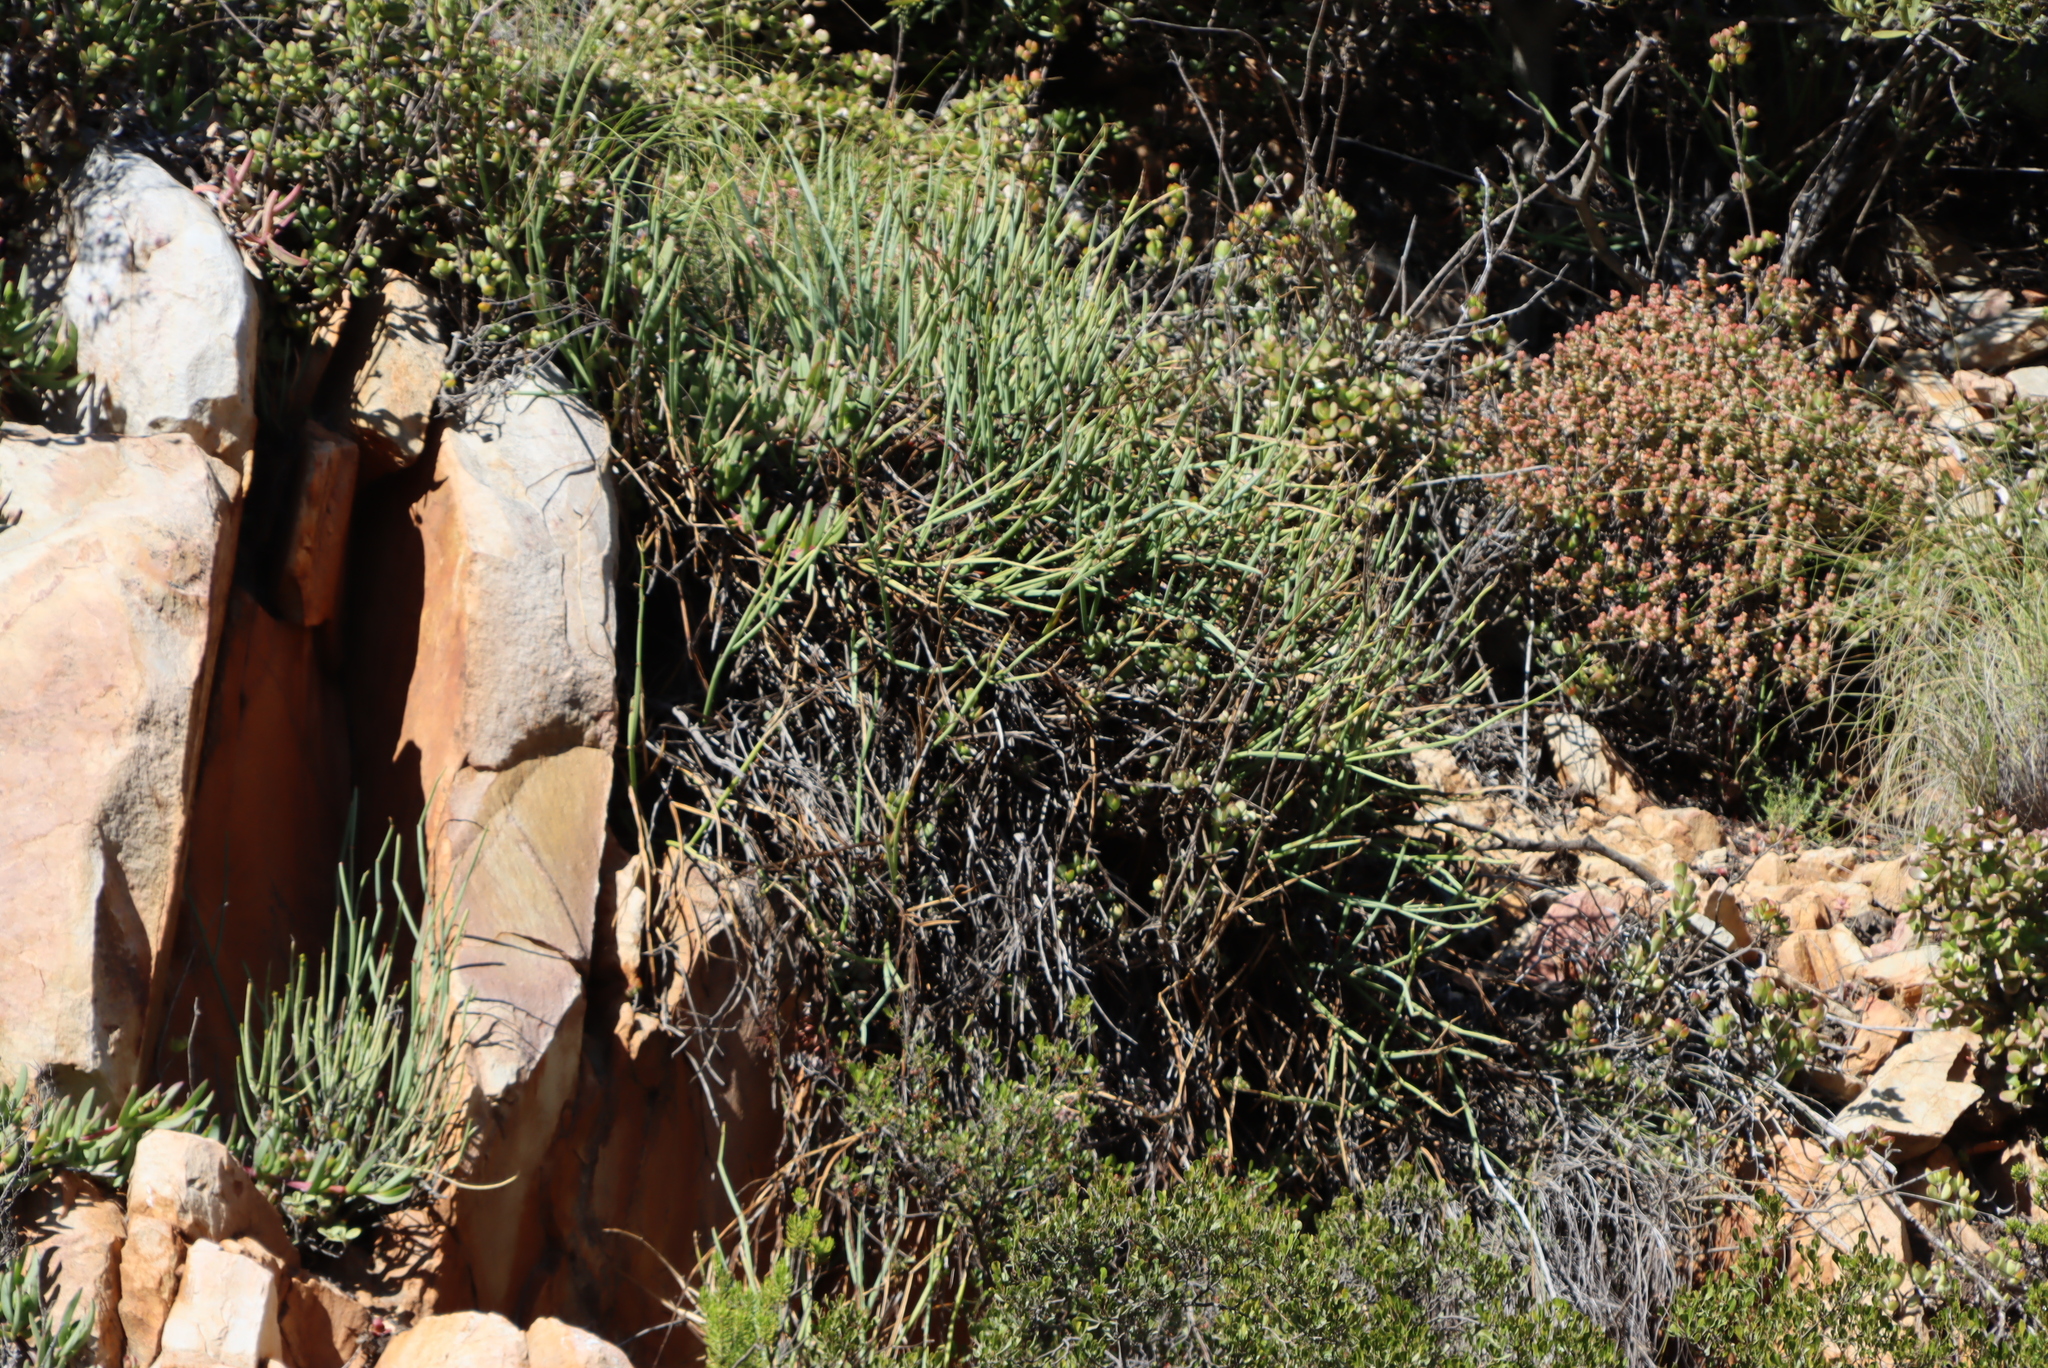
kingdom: Plantae
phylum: Tracheophyta
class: Magnoliopsida
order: Malpighiales
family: Euphorbiaceae
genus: Euphorbia
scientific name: Euphorbia mauritanica
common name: Jackal's-food
